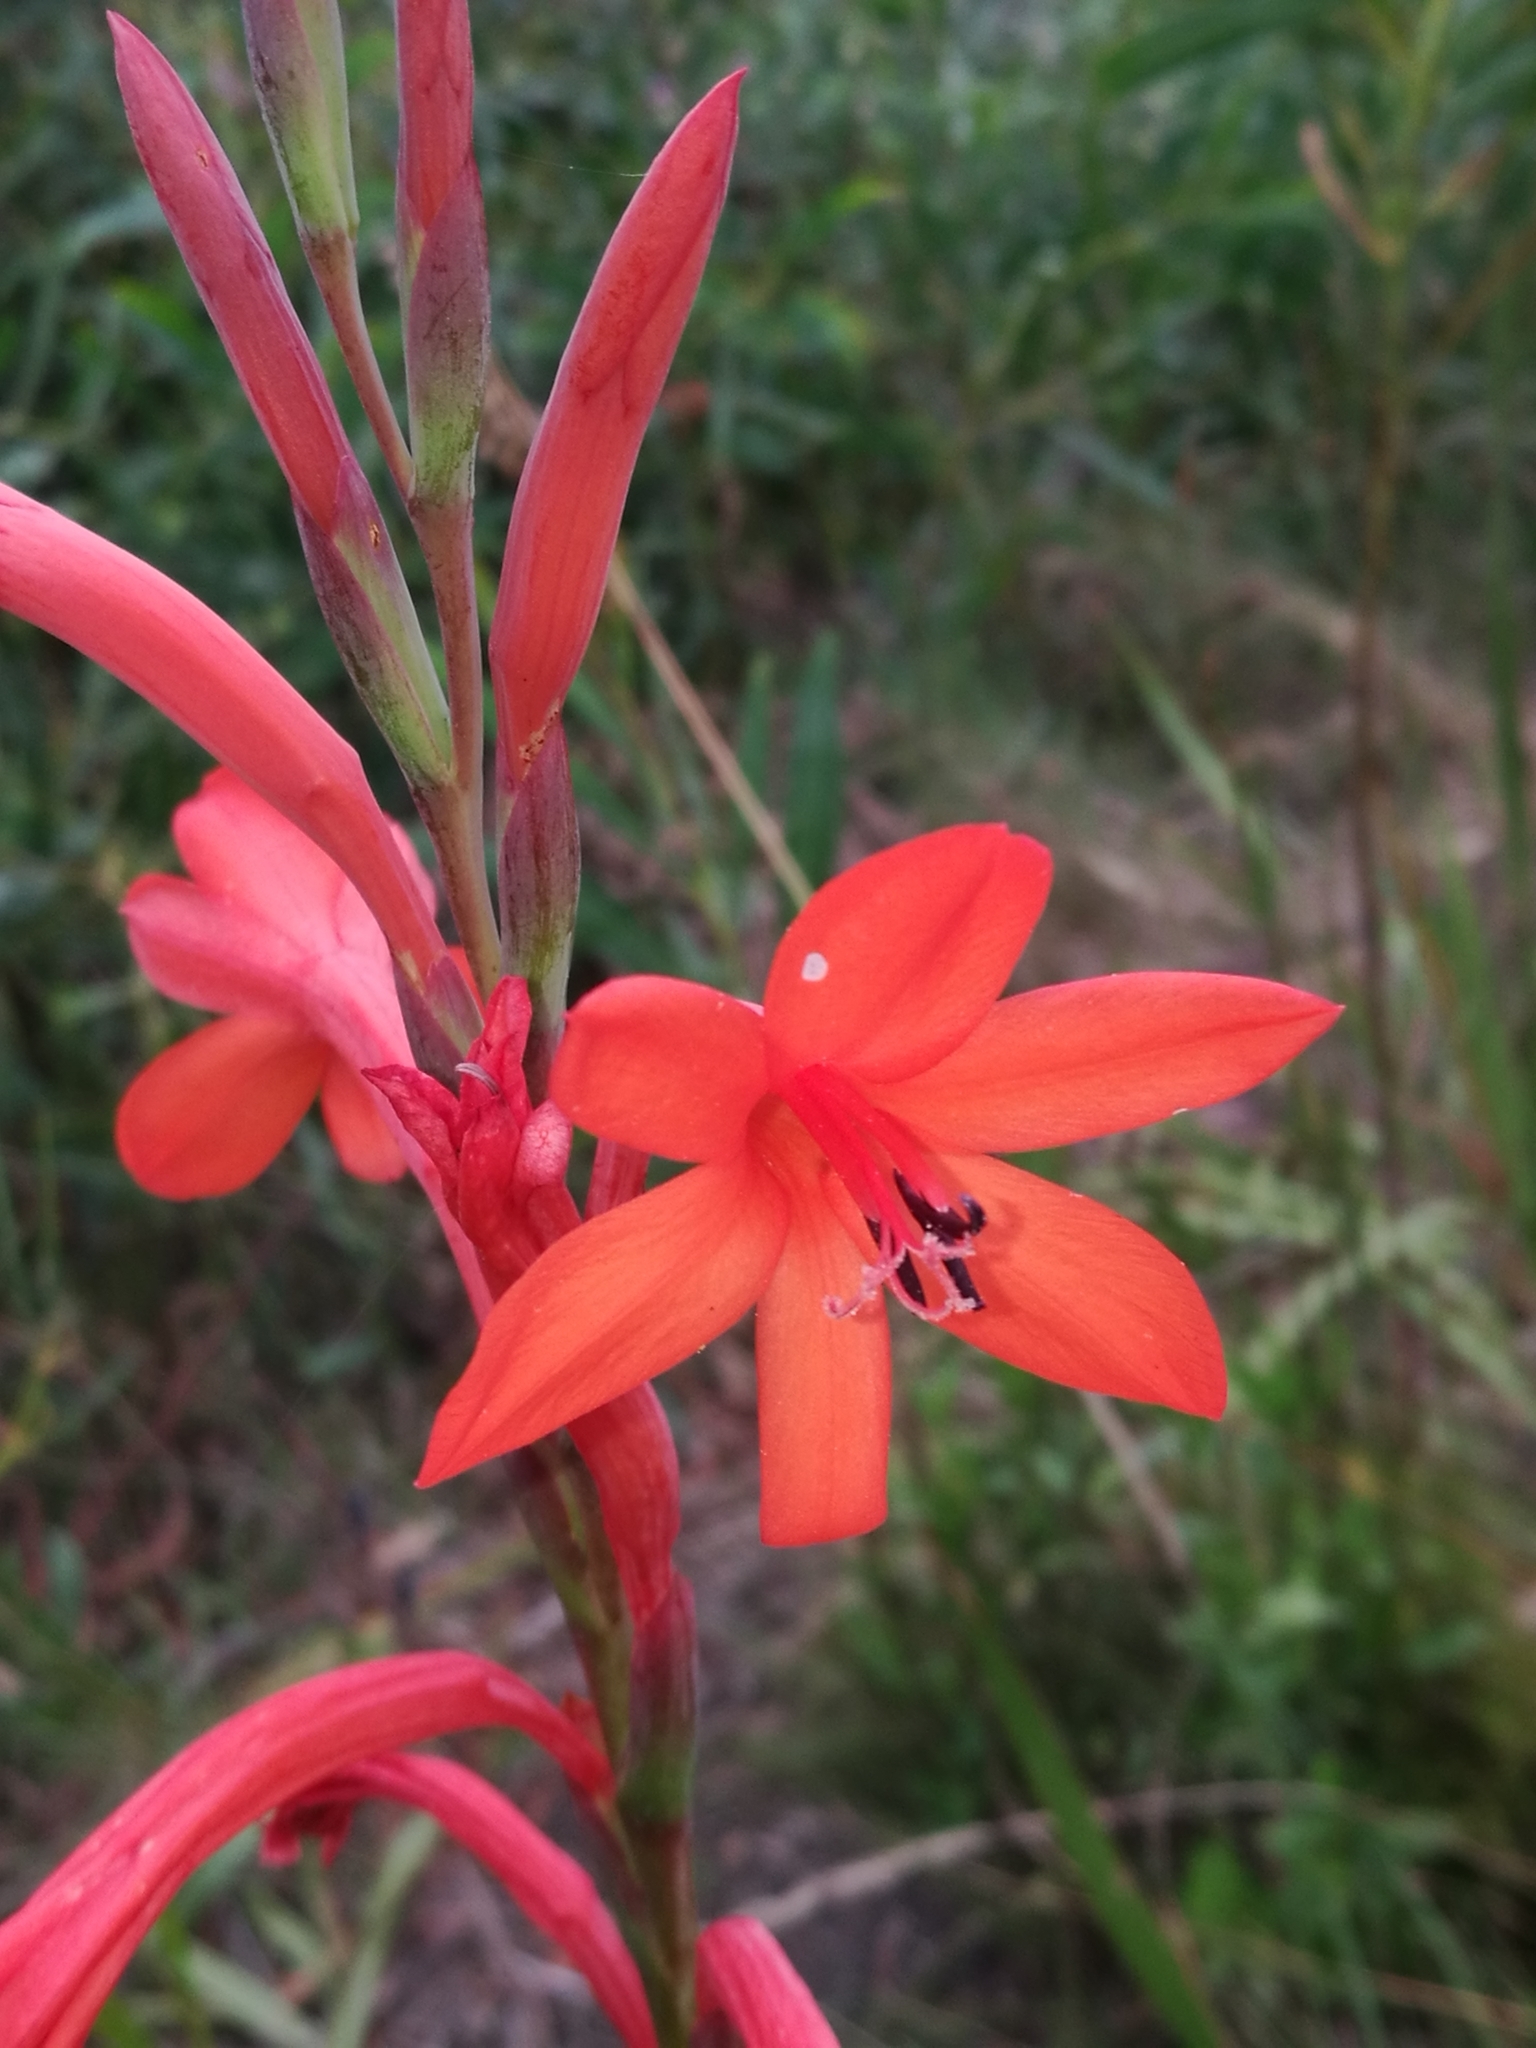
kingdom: Plantae
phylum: Tracheophyta
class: Liliopsida
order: Asparagales
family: Iridaceae
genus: Watsonia
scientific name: Watsonia pillansii
